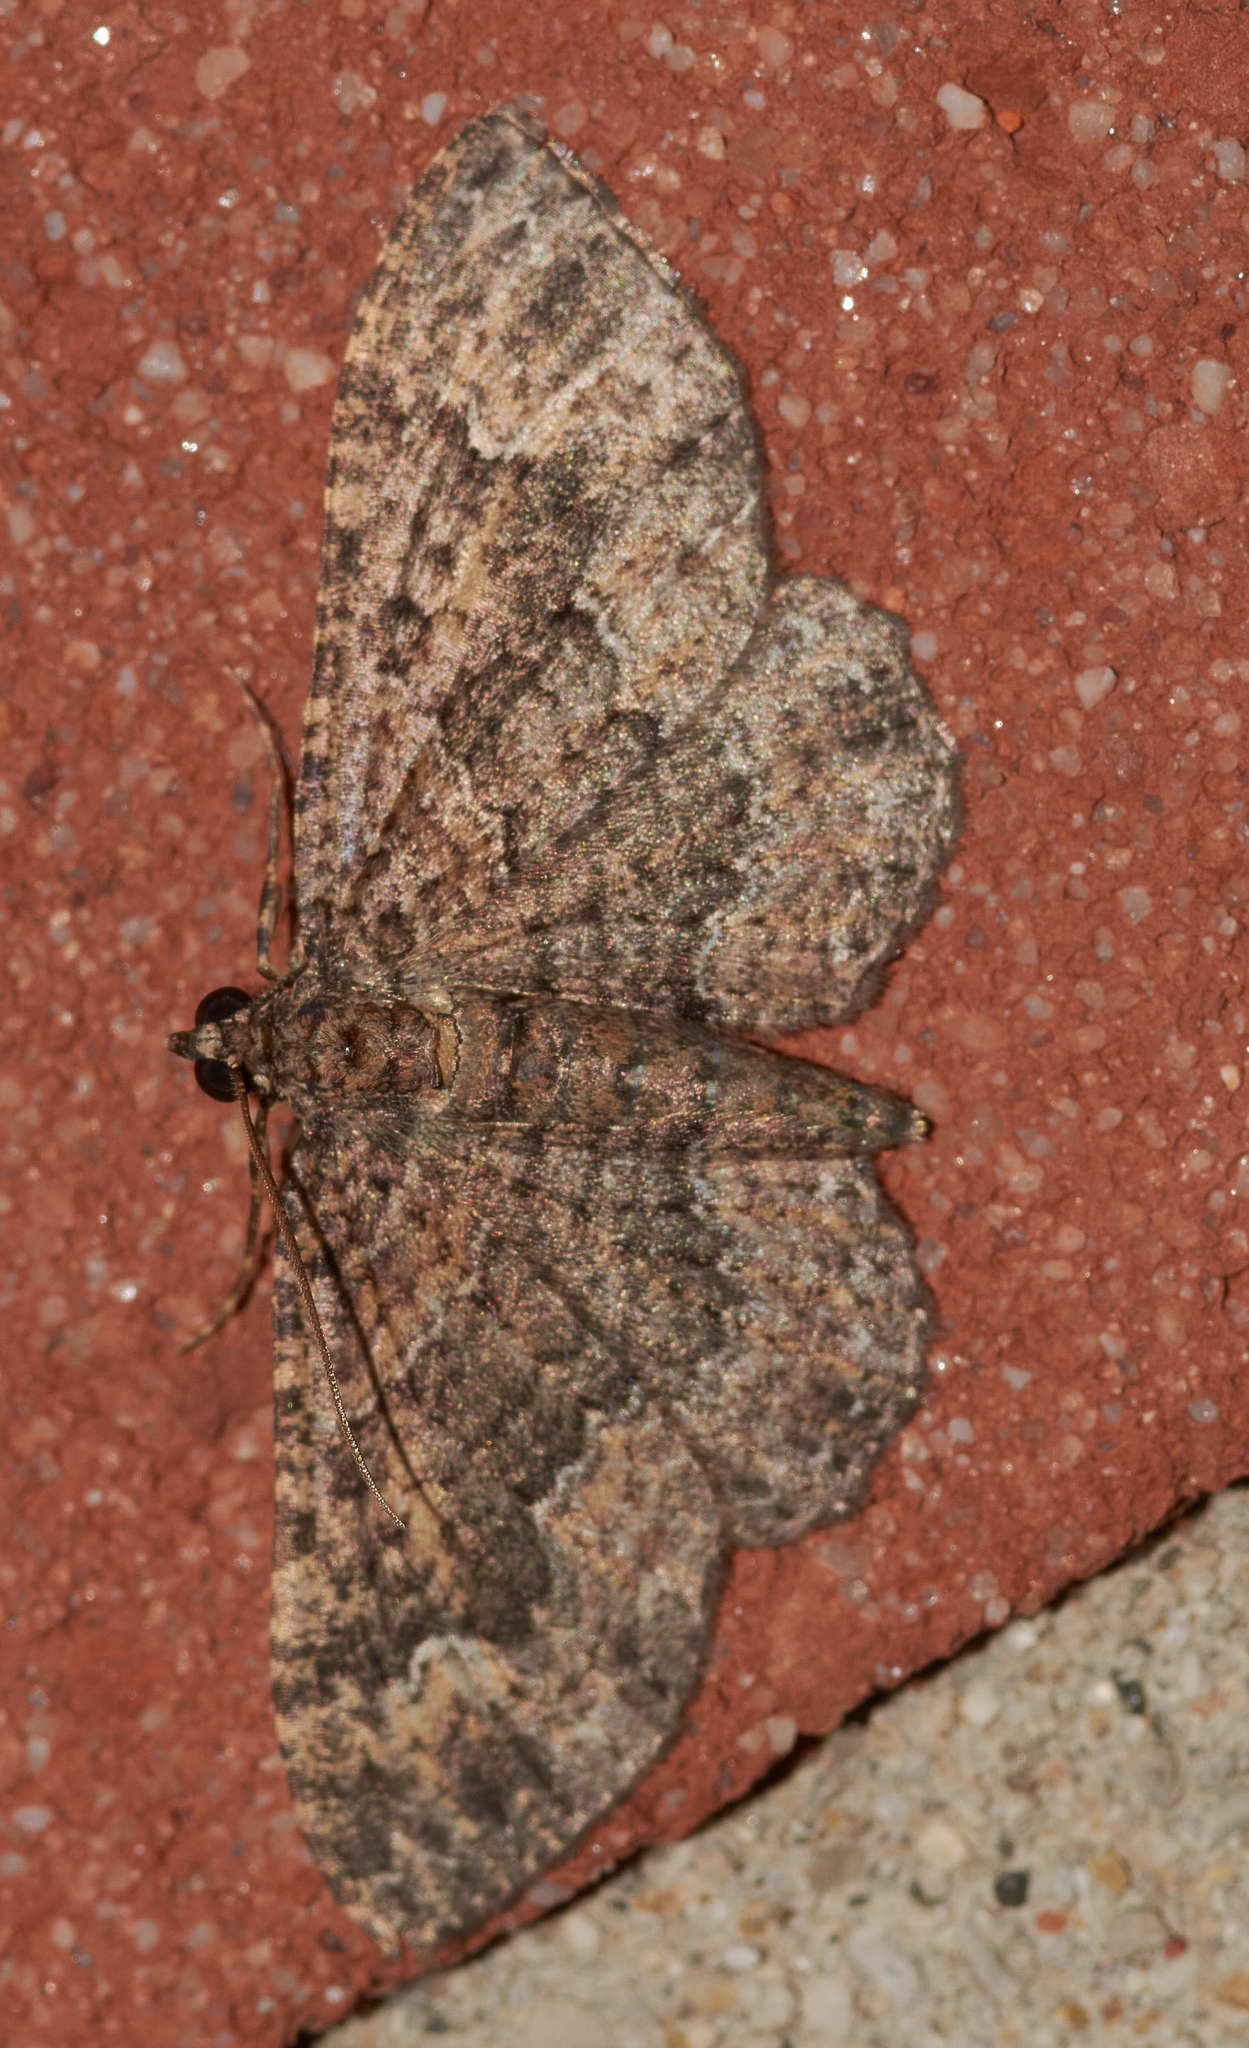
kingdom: Animalia
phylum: Arthropoda
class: Insecta
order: Lepidoptera
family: Geometridae
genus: Disclisioprocta
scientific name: Disclisioprocta stellata
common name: Somber carpet
